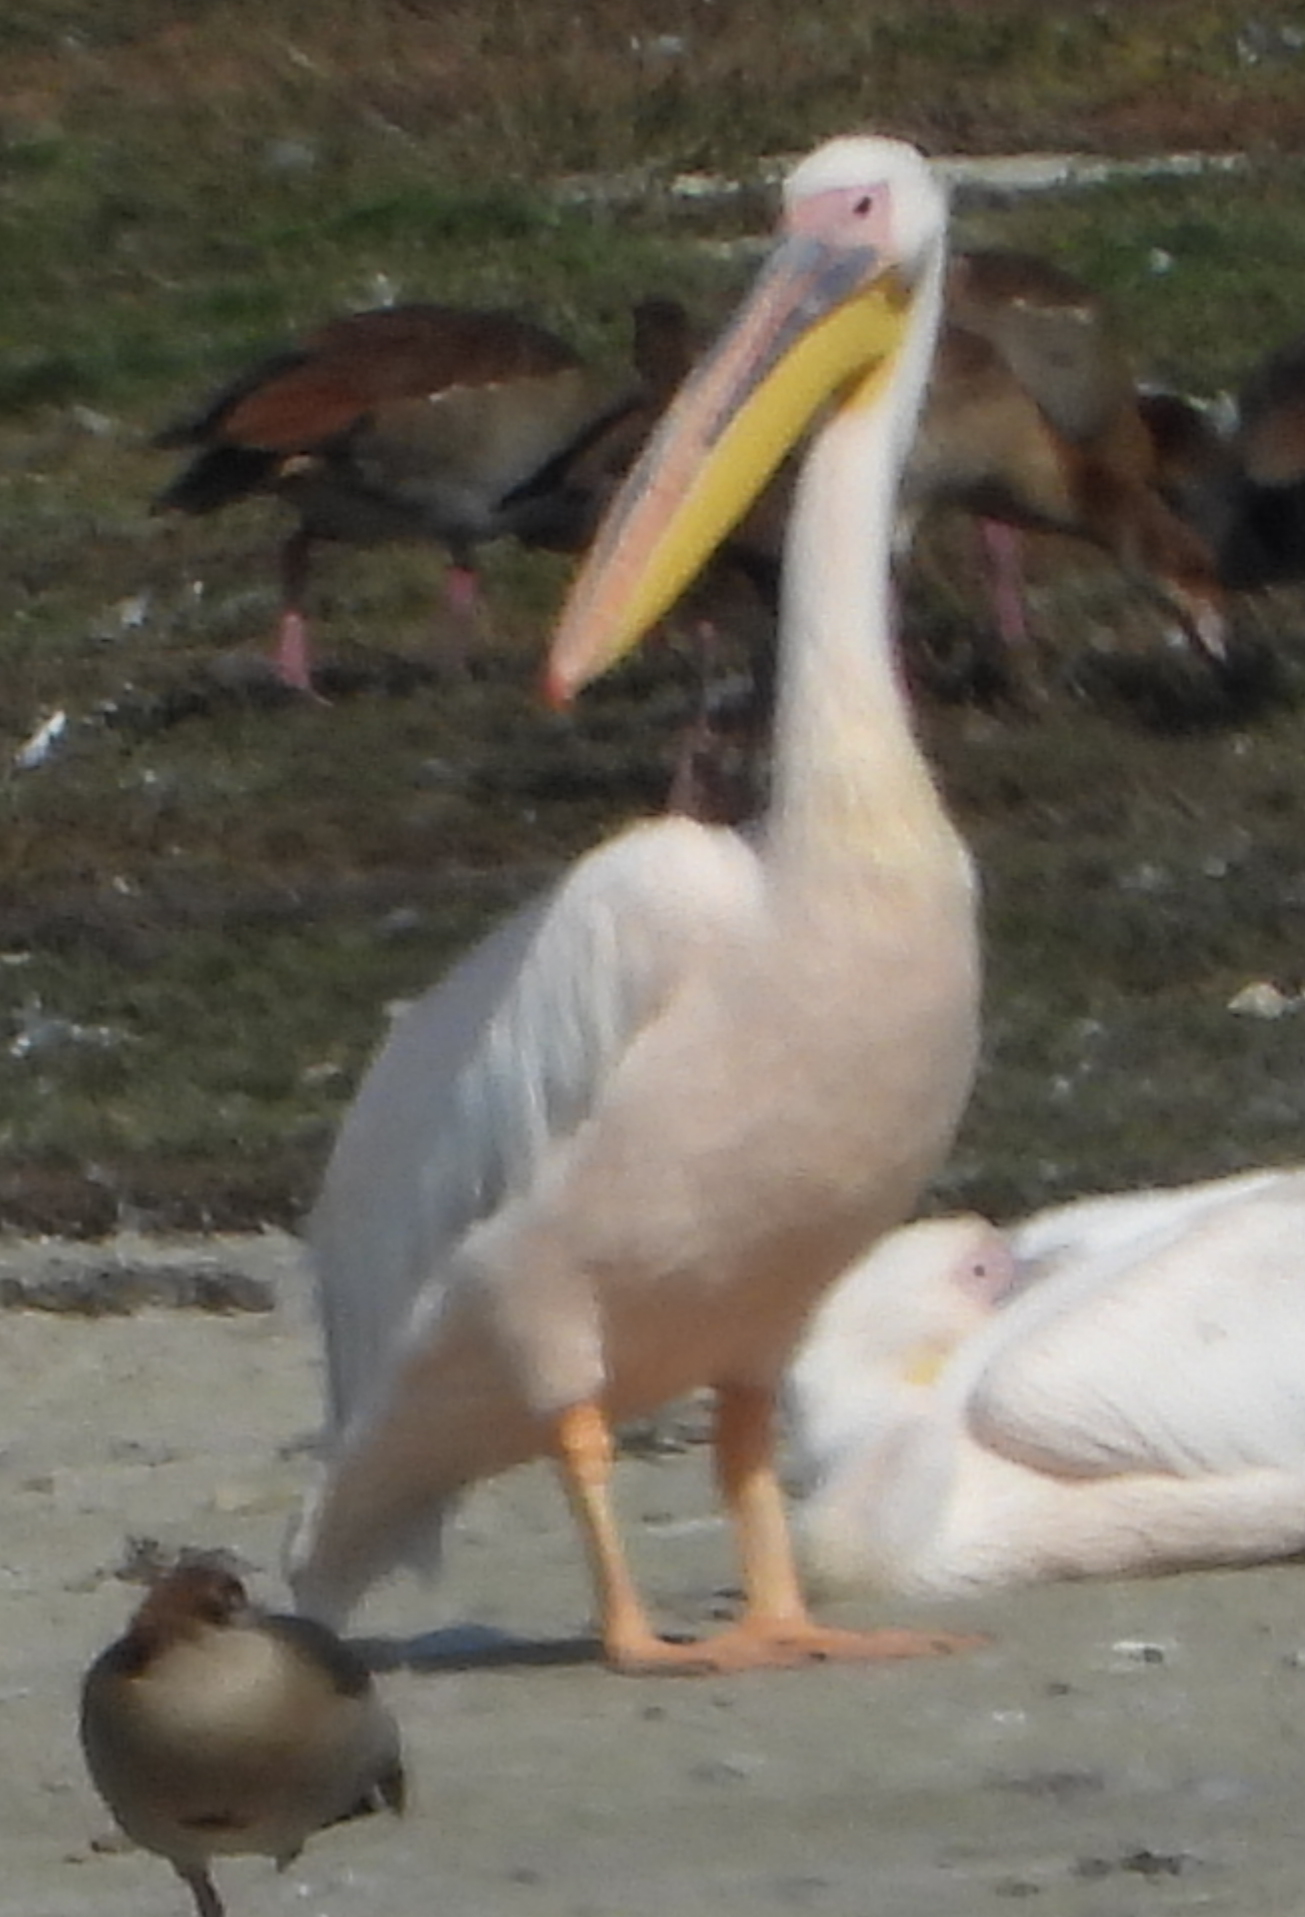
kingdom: Animalia
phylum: Chordata
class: Aves
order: Pelecaniformes
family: Pelecanidae
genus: Pelecanus
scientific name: Pelecanus onocrotalus
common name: Great white pelican
